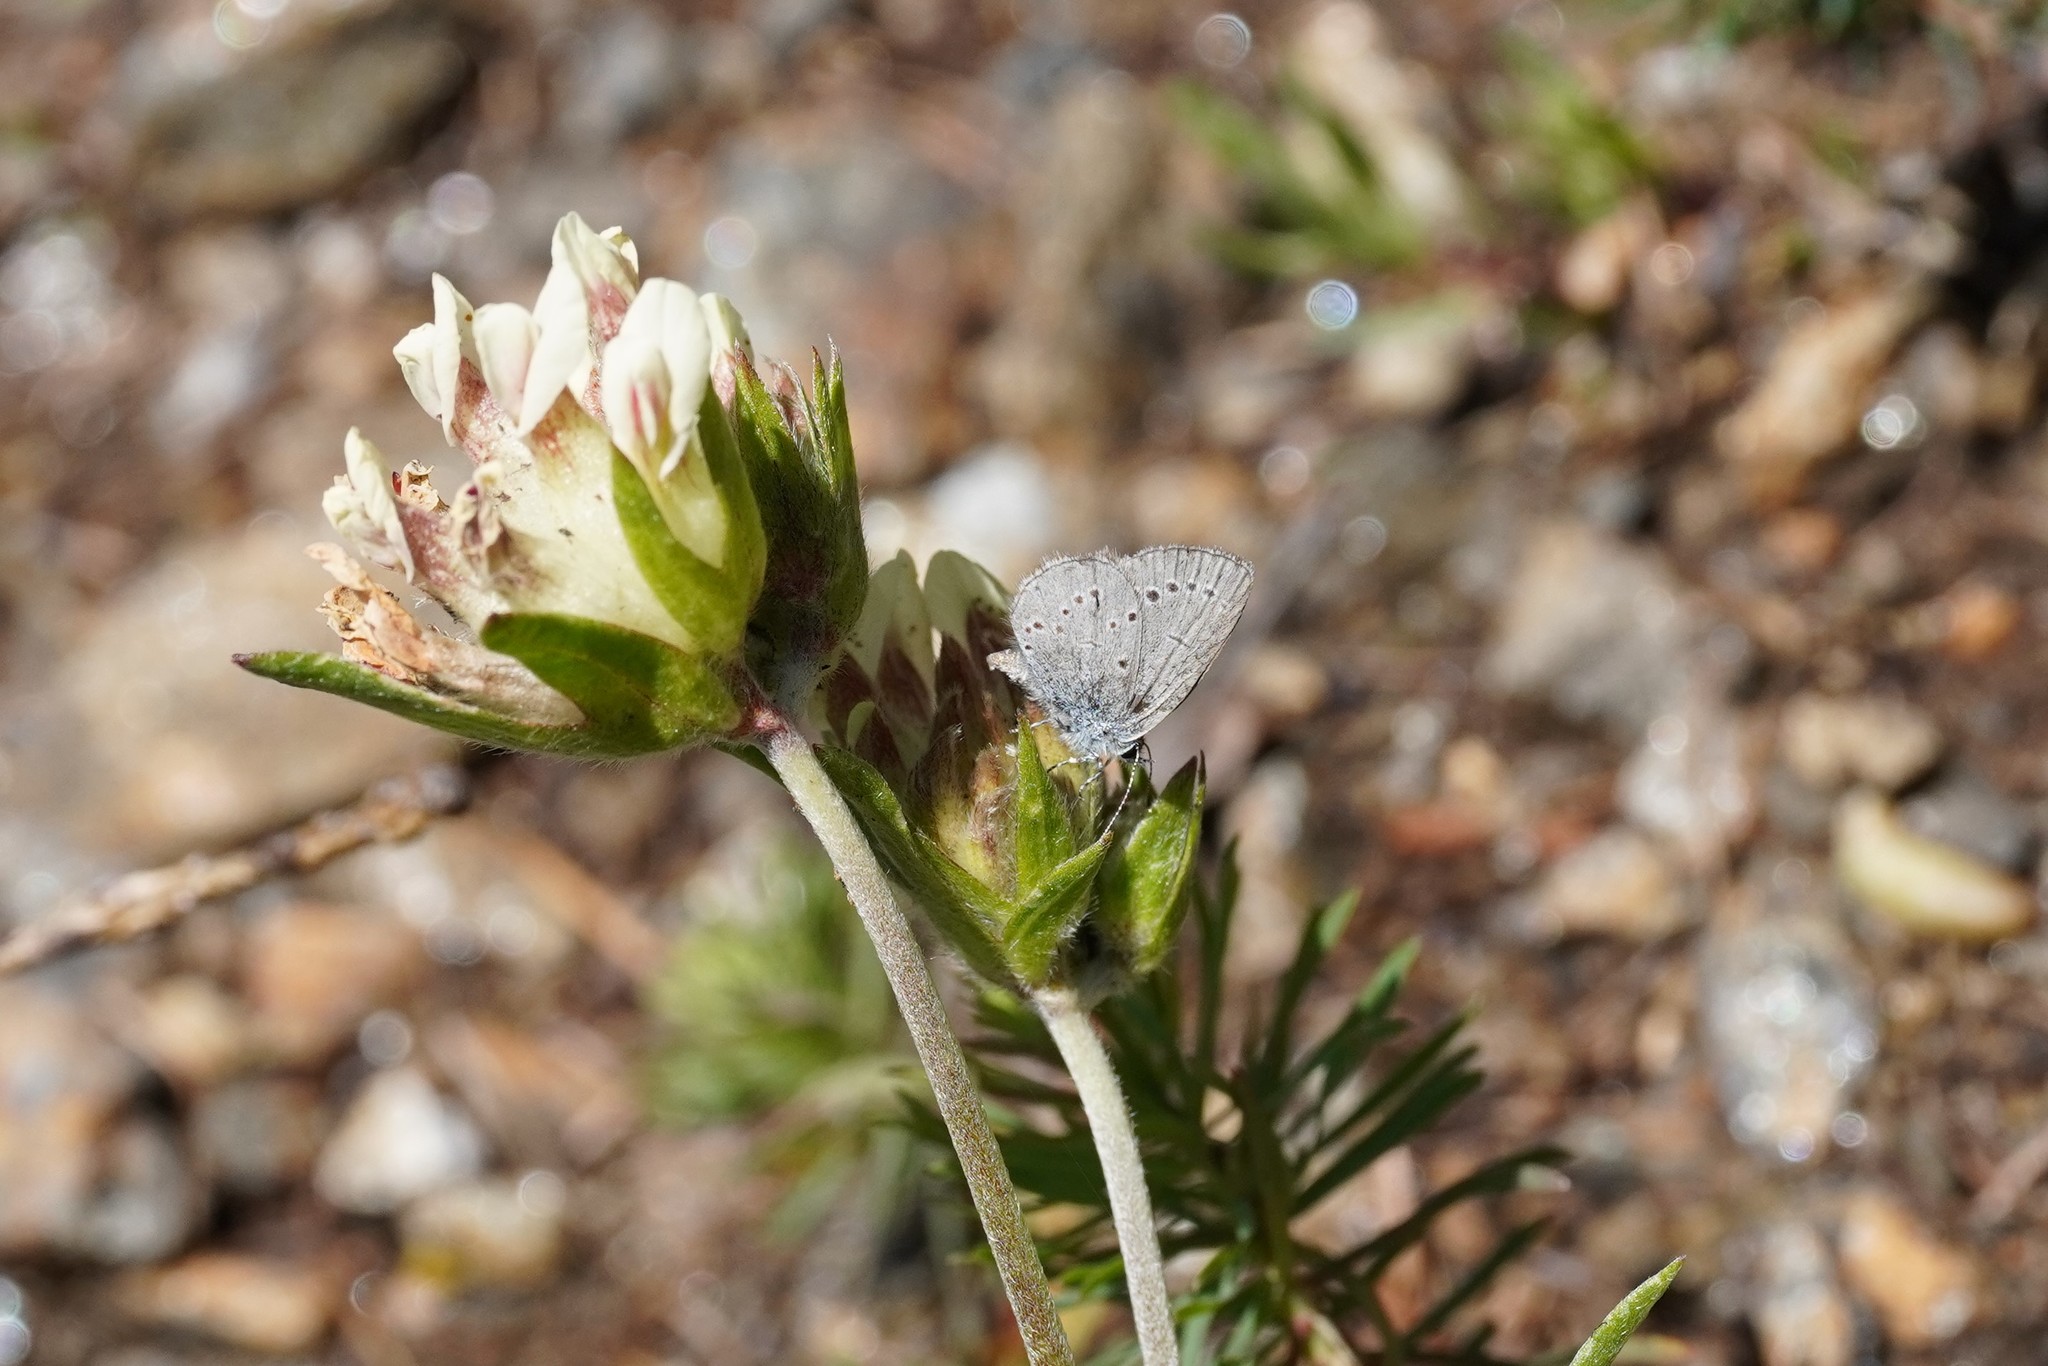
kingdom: Animalia
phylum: Arthropoda
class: Insecta
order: Lepidoptera
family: Lycaenidae
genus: Cupido
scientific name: Cupido minimus
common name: Small blue
